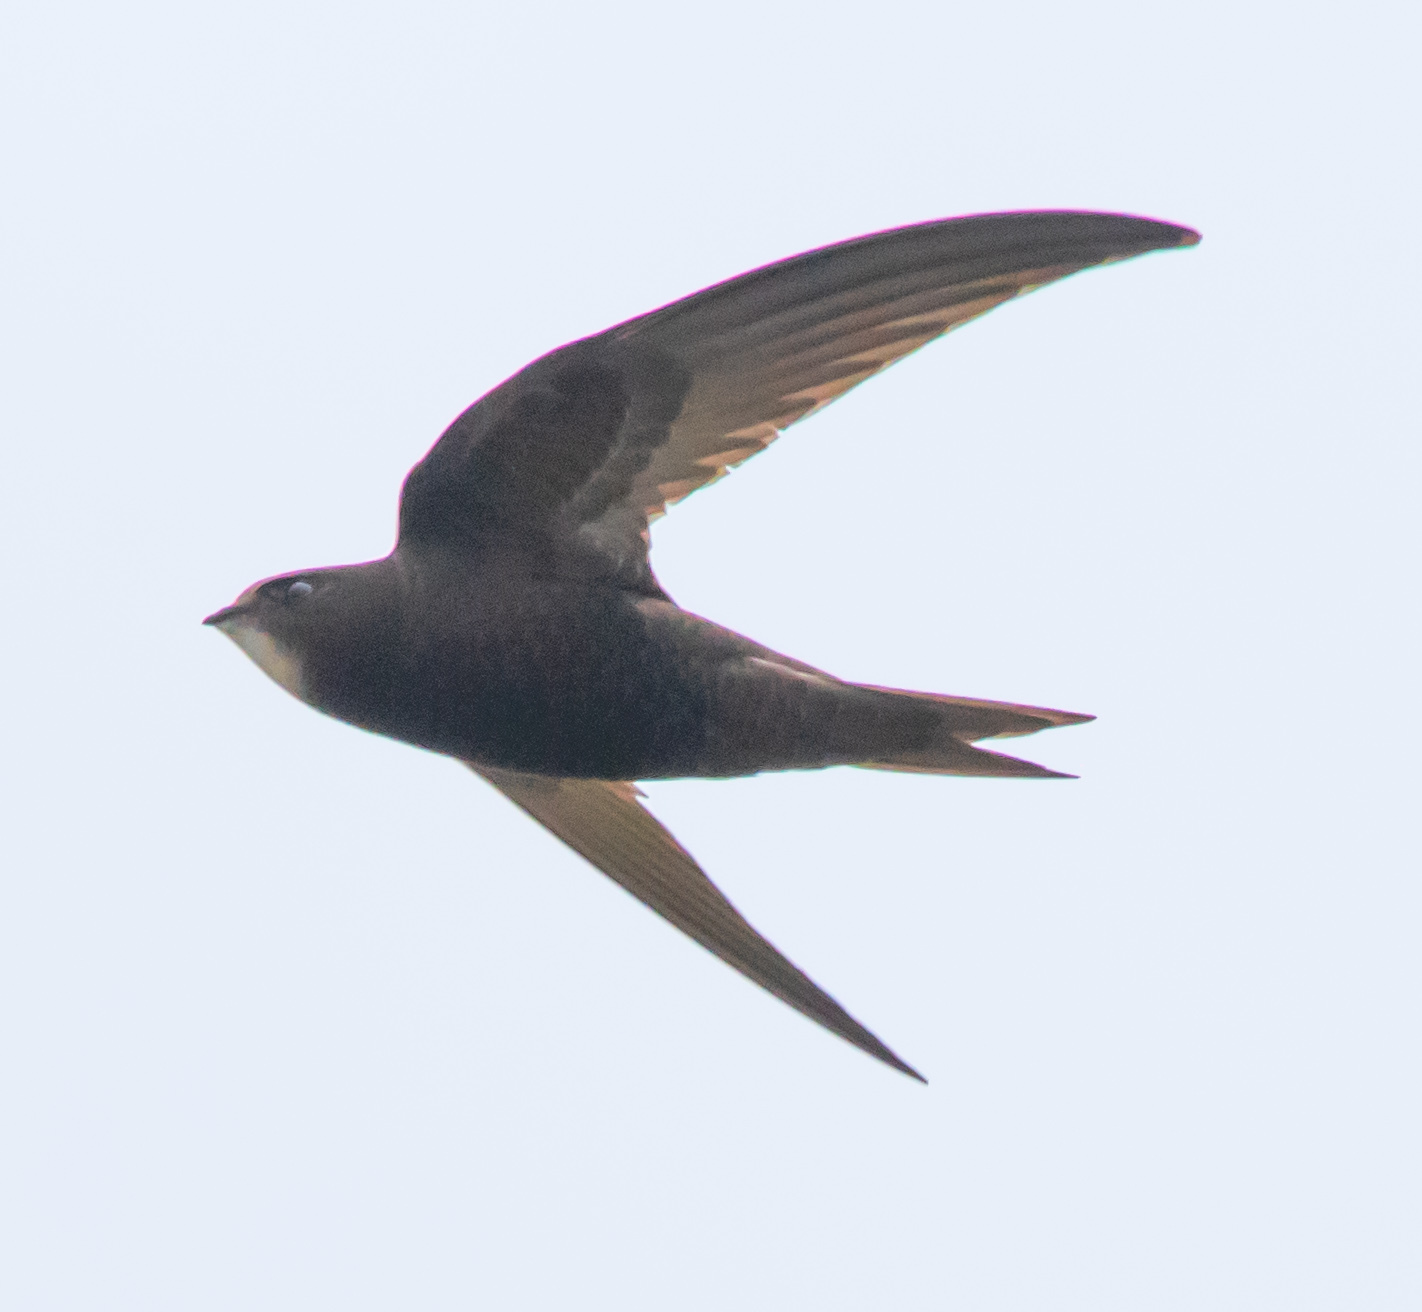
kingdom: Animalia
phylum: Chordata
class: Aves
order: Apodiformes
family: Apodidae
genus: Apus
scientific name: Apus apus
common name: Common swift
